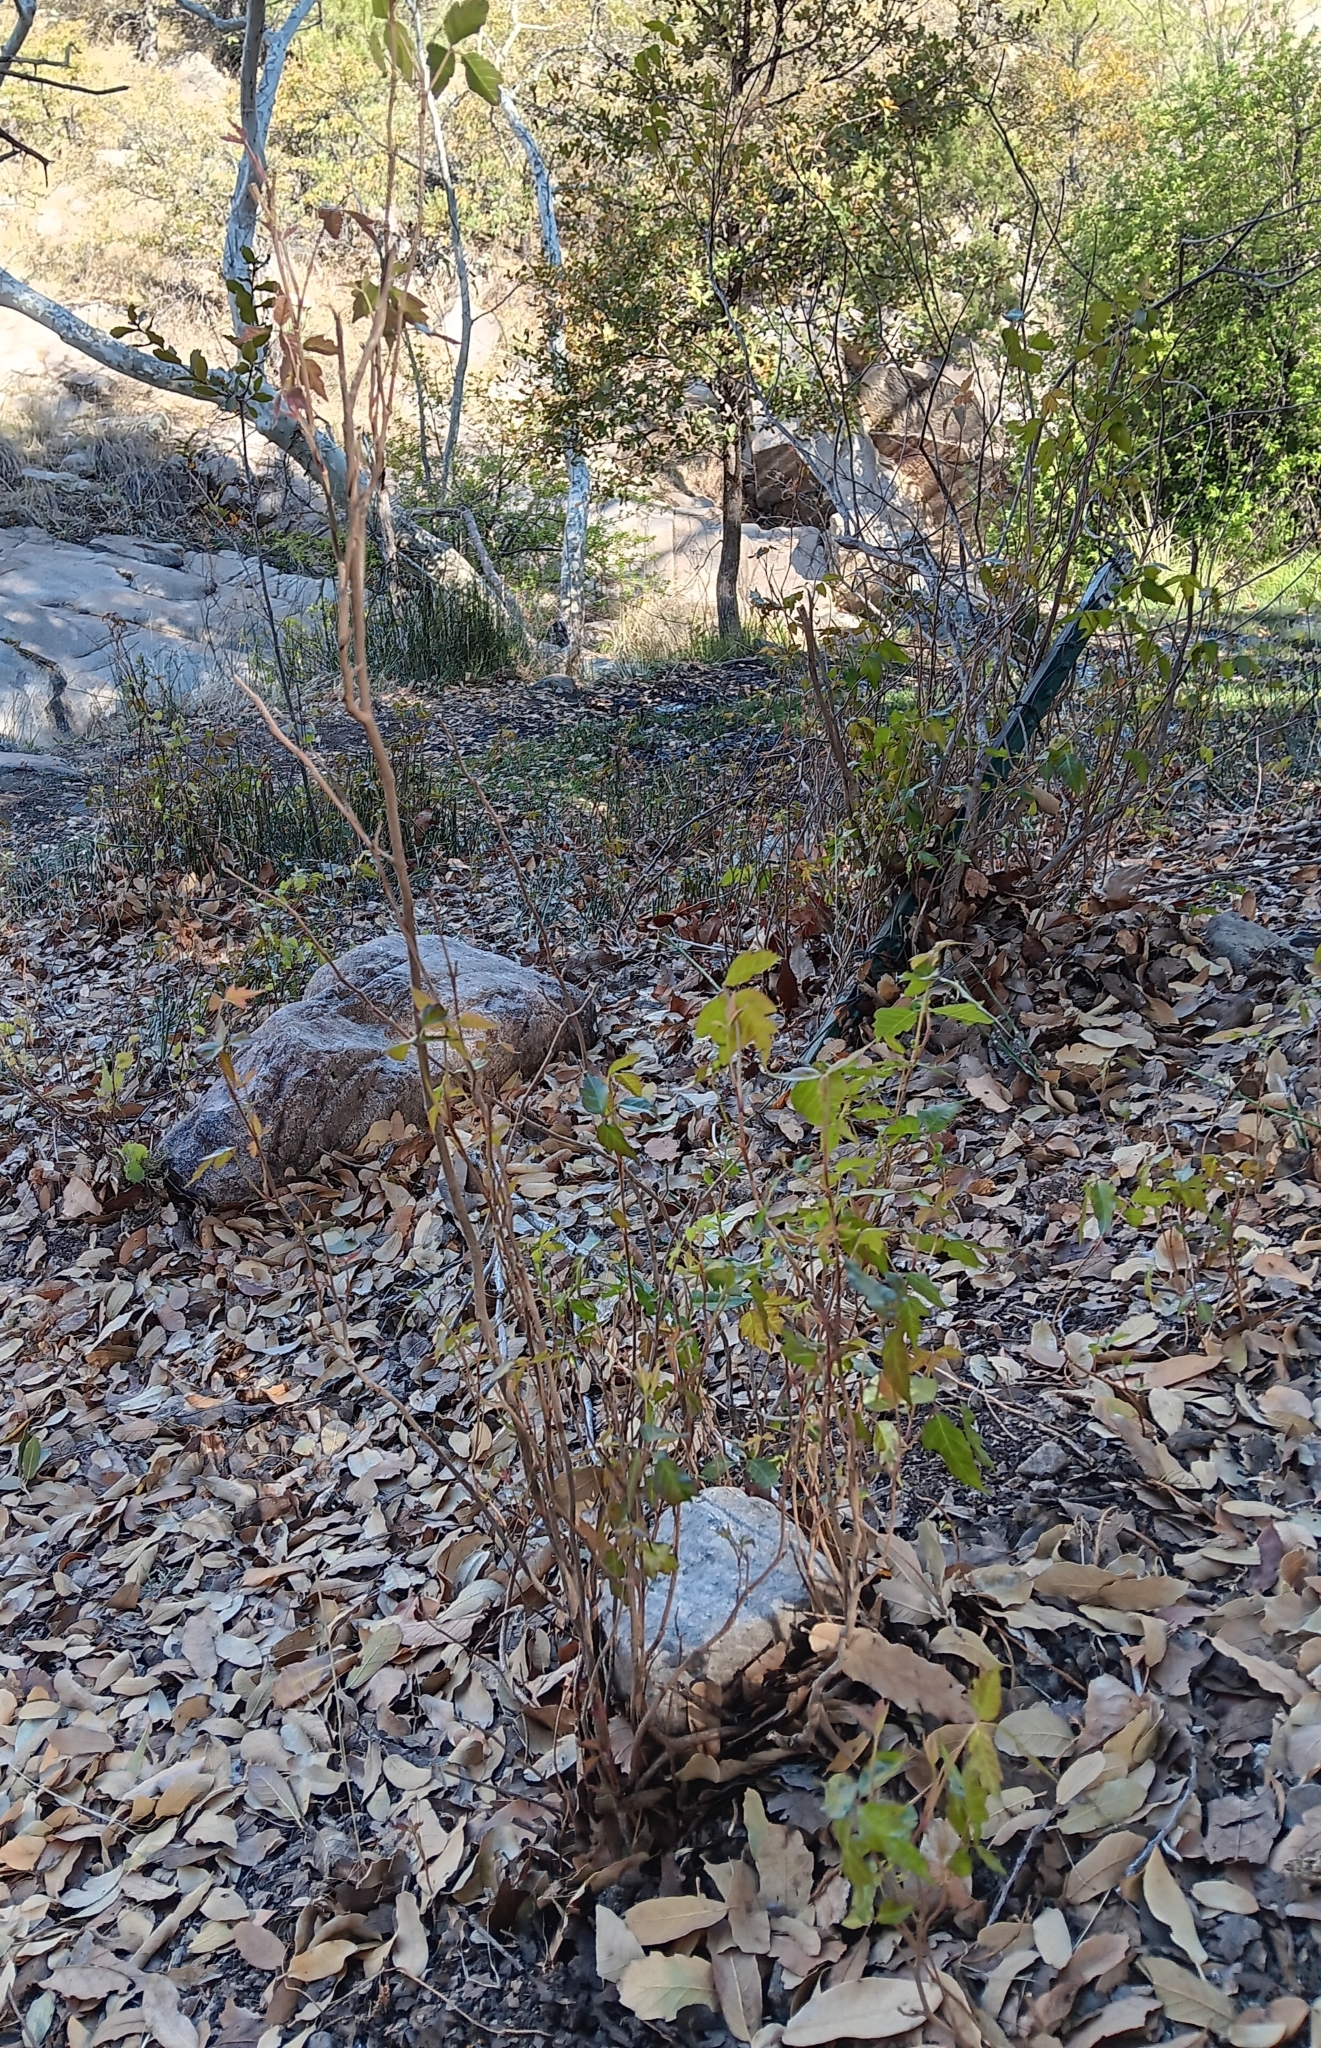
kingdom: Plantae
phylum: Tracheophyta
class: Magnoliopsida
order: Sapindales
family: Anacardiaceae
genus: Toxicodendron
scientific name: Toxicodendron rydbergii
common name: Rydberg's poison-ivy
